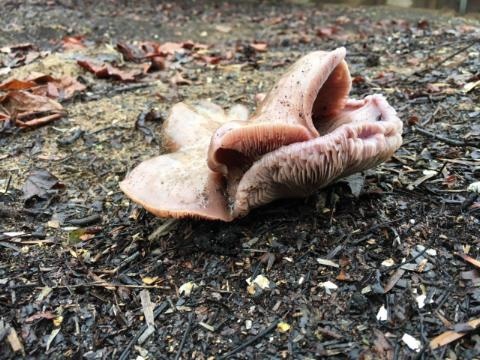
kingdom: Fungi
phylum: Basidiomycota
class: Agaricomycetes
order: Agaricales
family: Tricholomataceae
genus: Collybia
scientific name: Collybia
